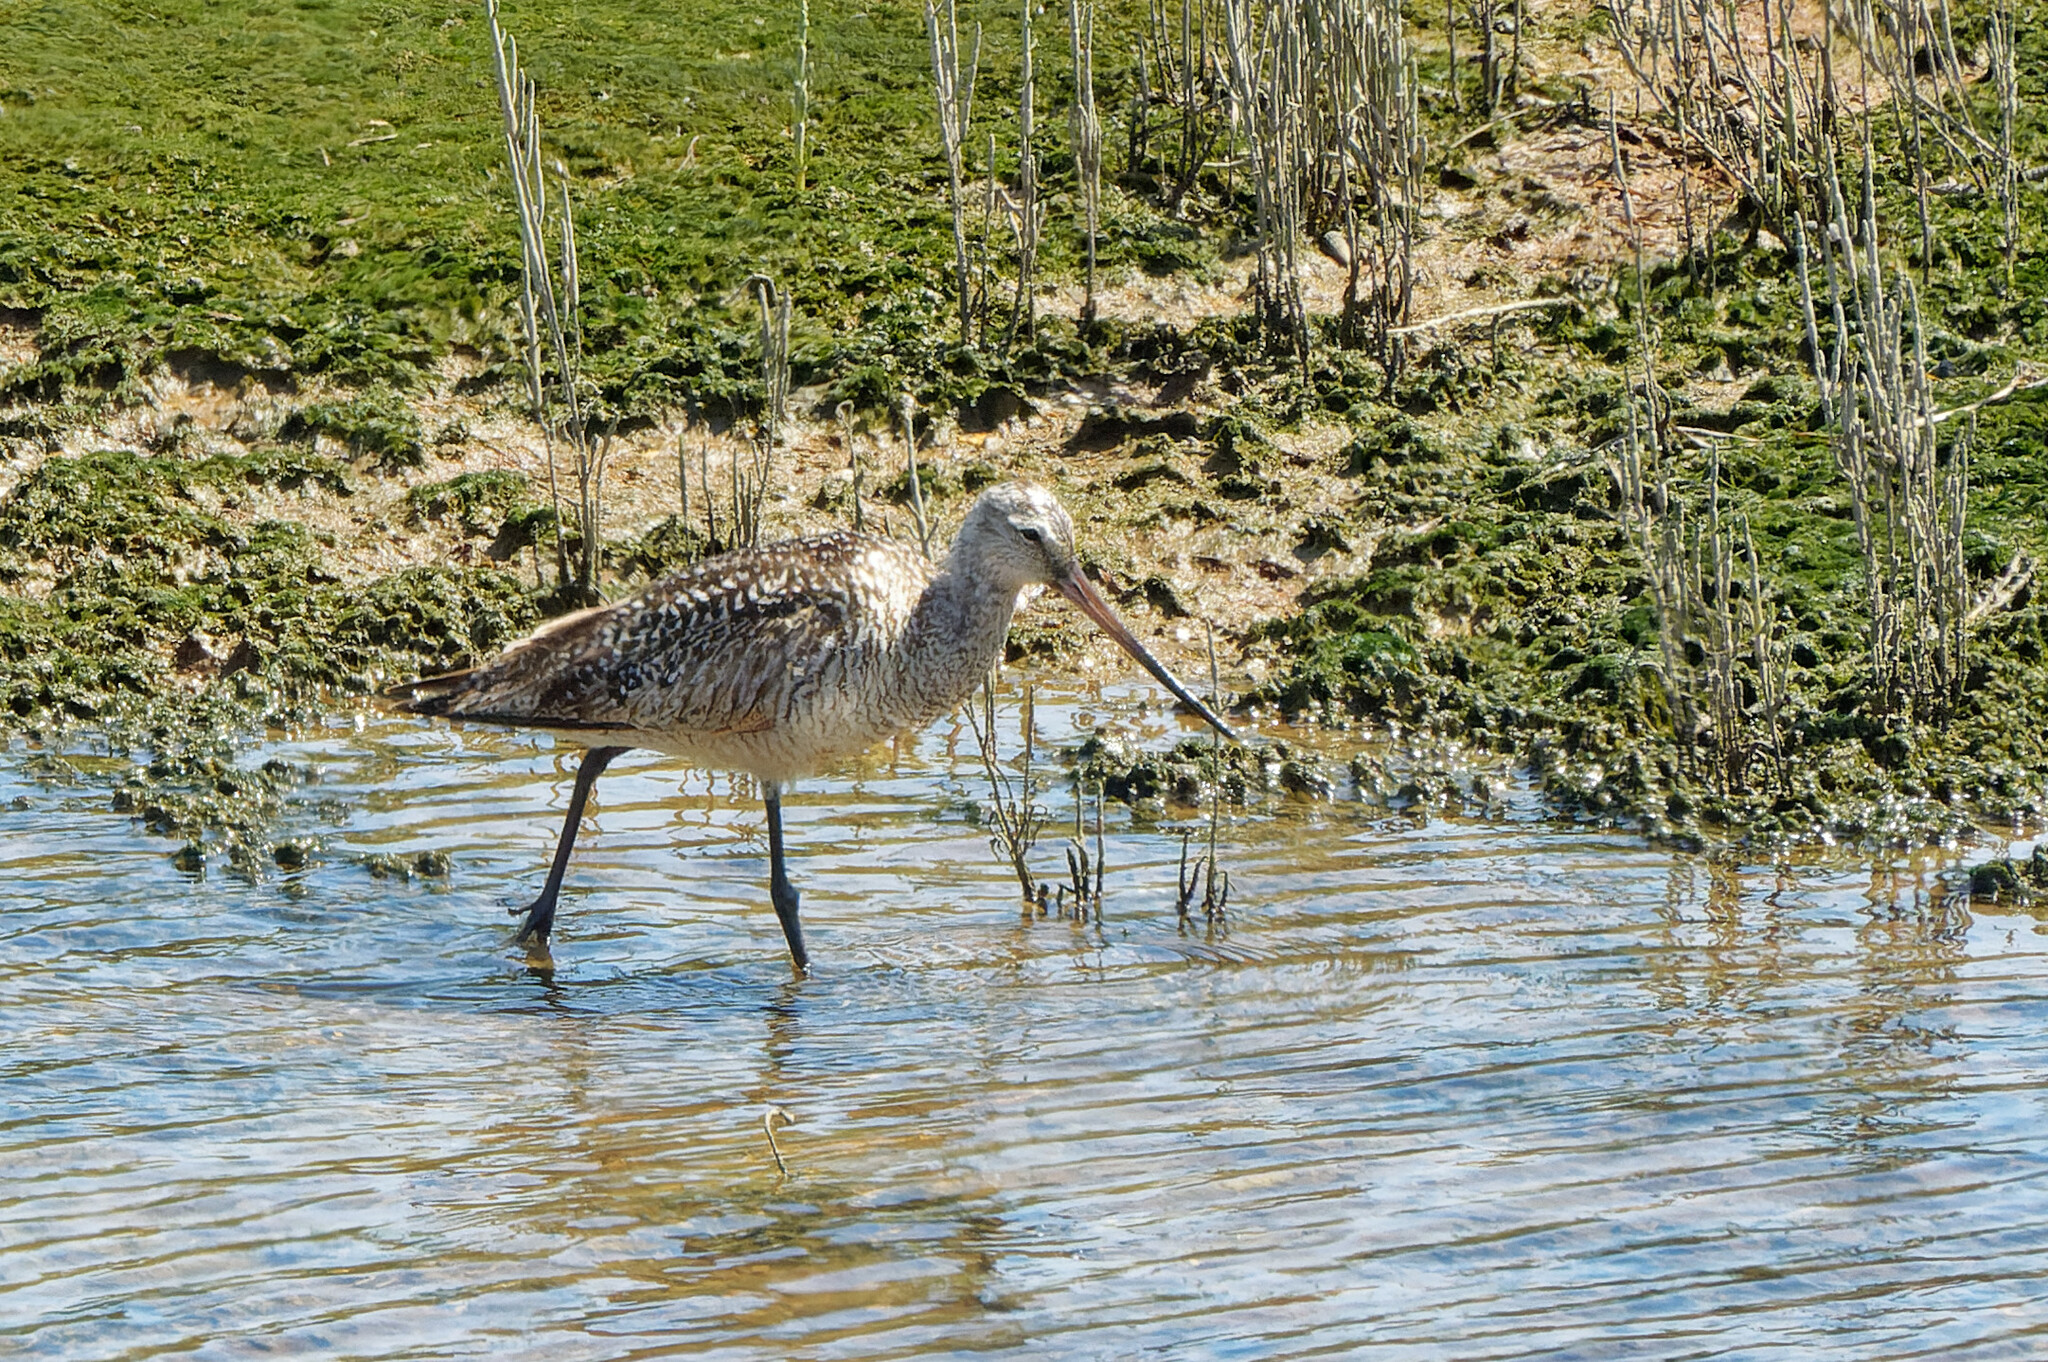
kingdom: Animalia
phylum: Chordata
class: Aves
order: Charadriiformes
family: Scolopacidae
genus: Limosa
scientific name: Limosa fedoa
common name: Marbled godwit
